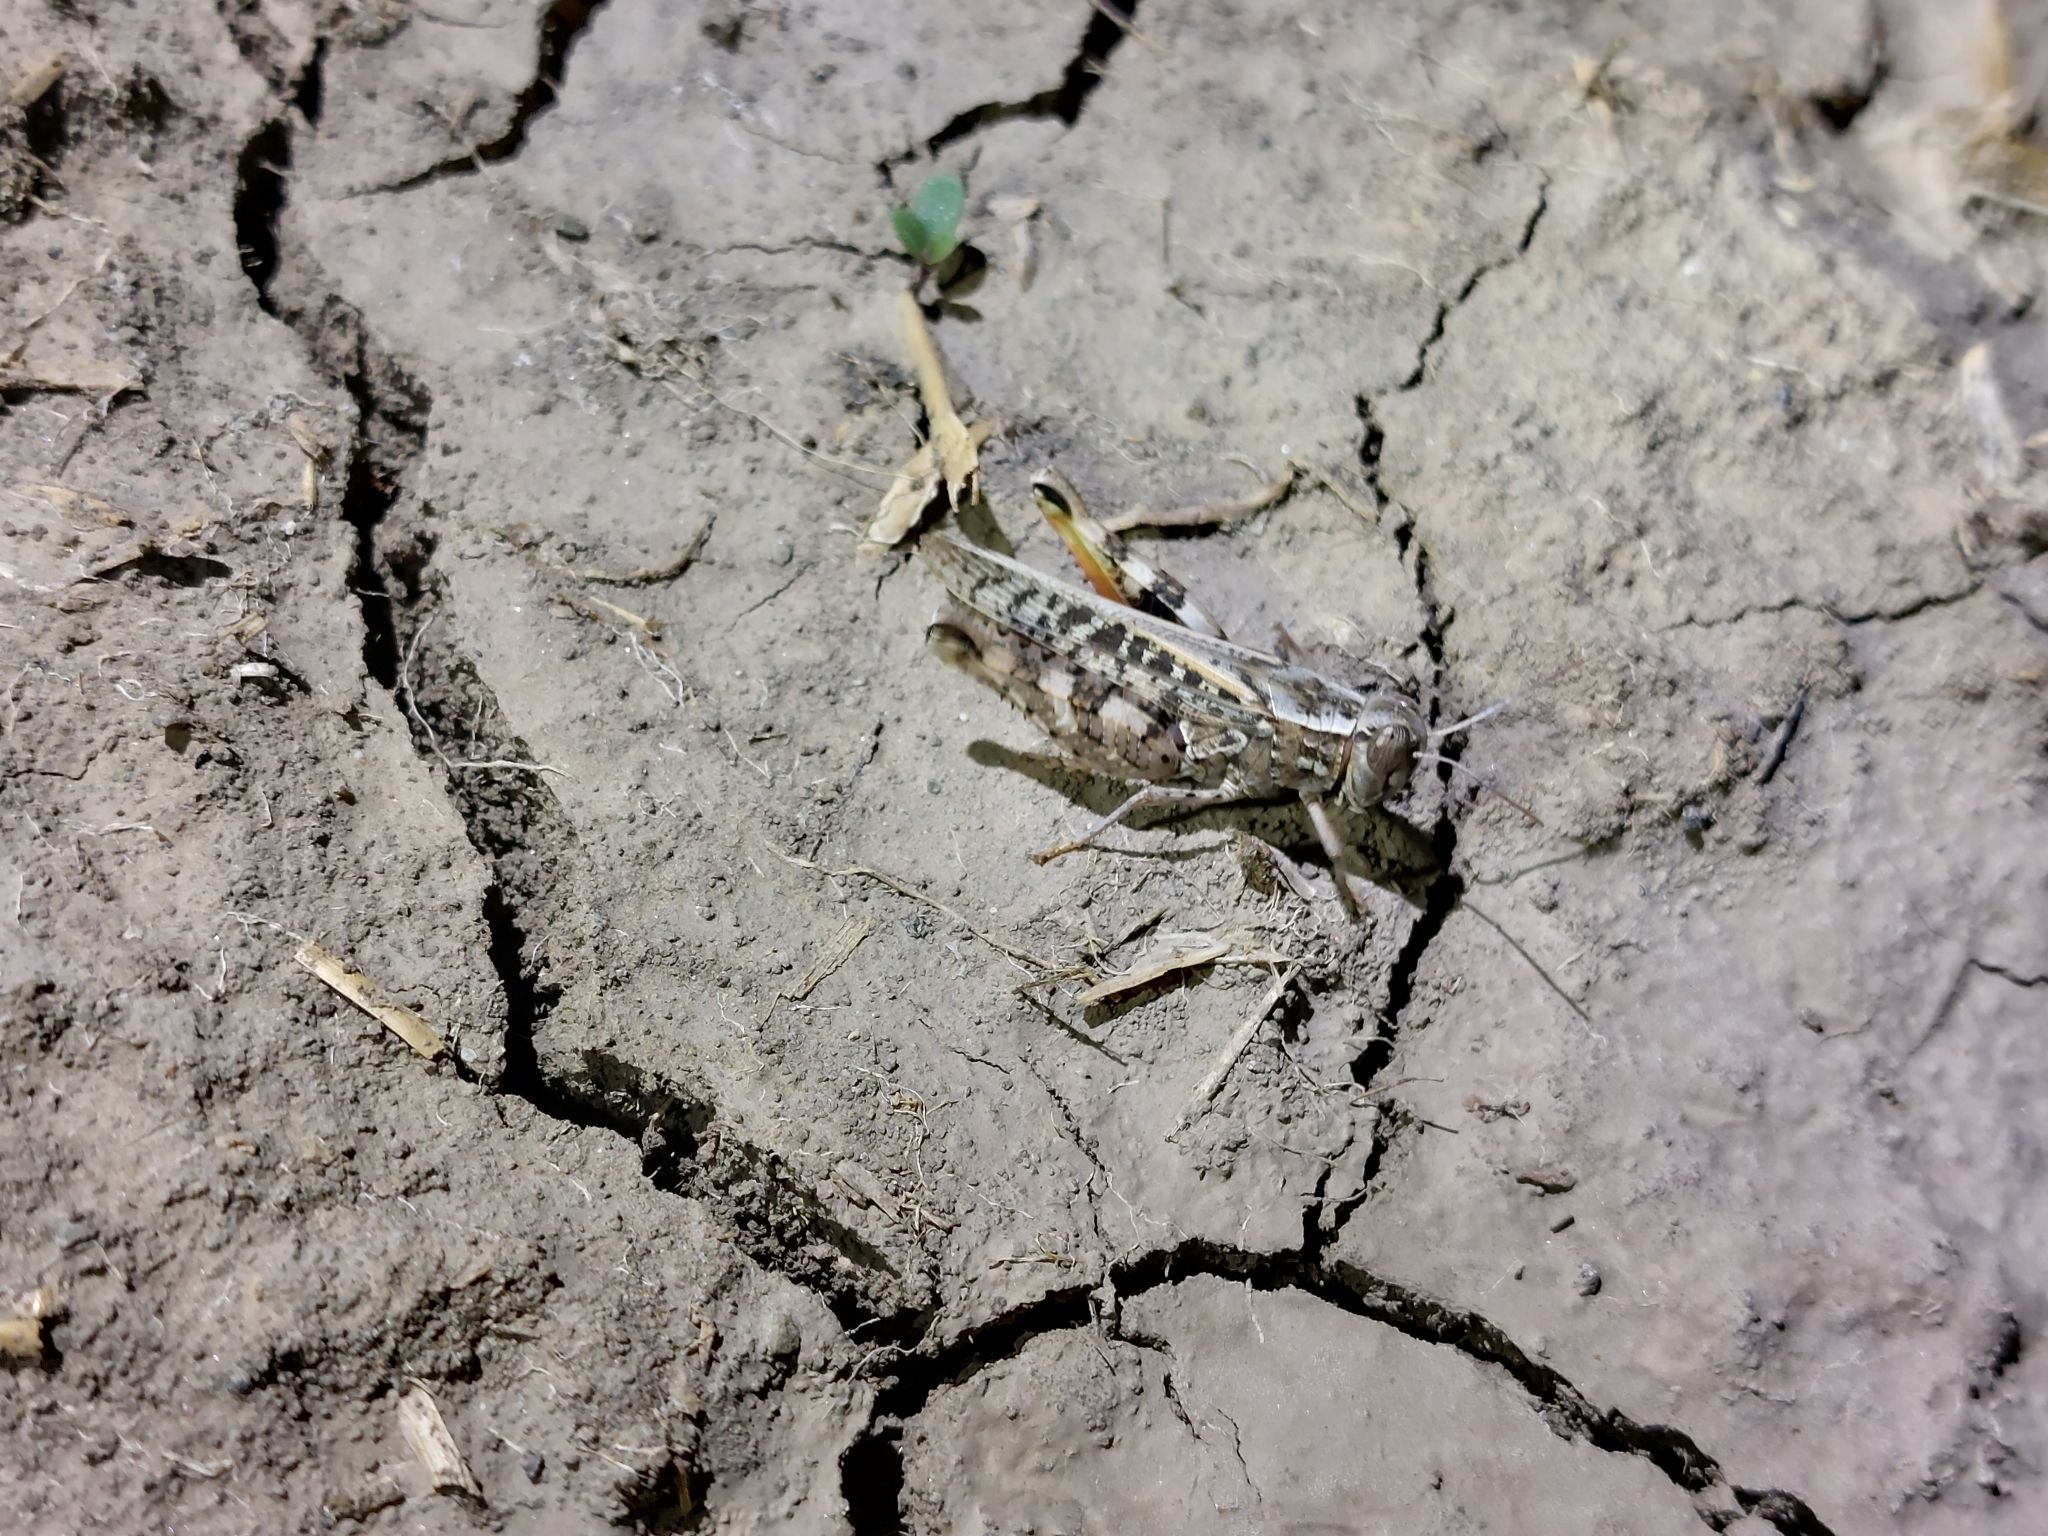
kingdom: Animalia
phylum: Arthropoda
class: Insecta
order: Orthoptera
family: Acrididae
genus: Calliptamus
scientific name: Calliptamus italicus
